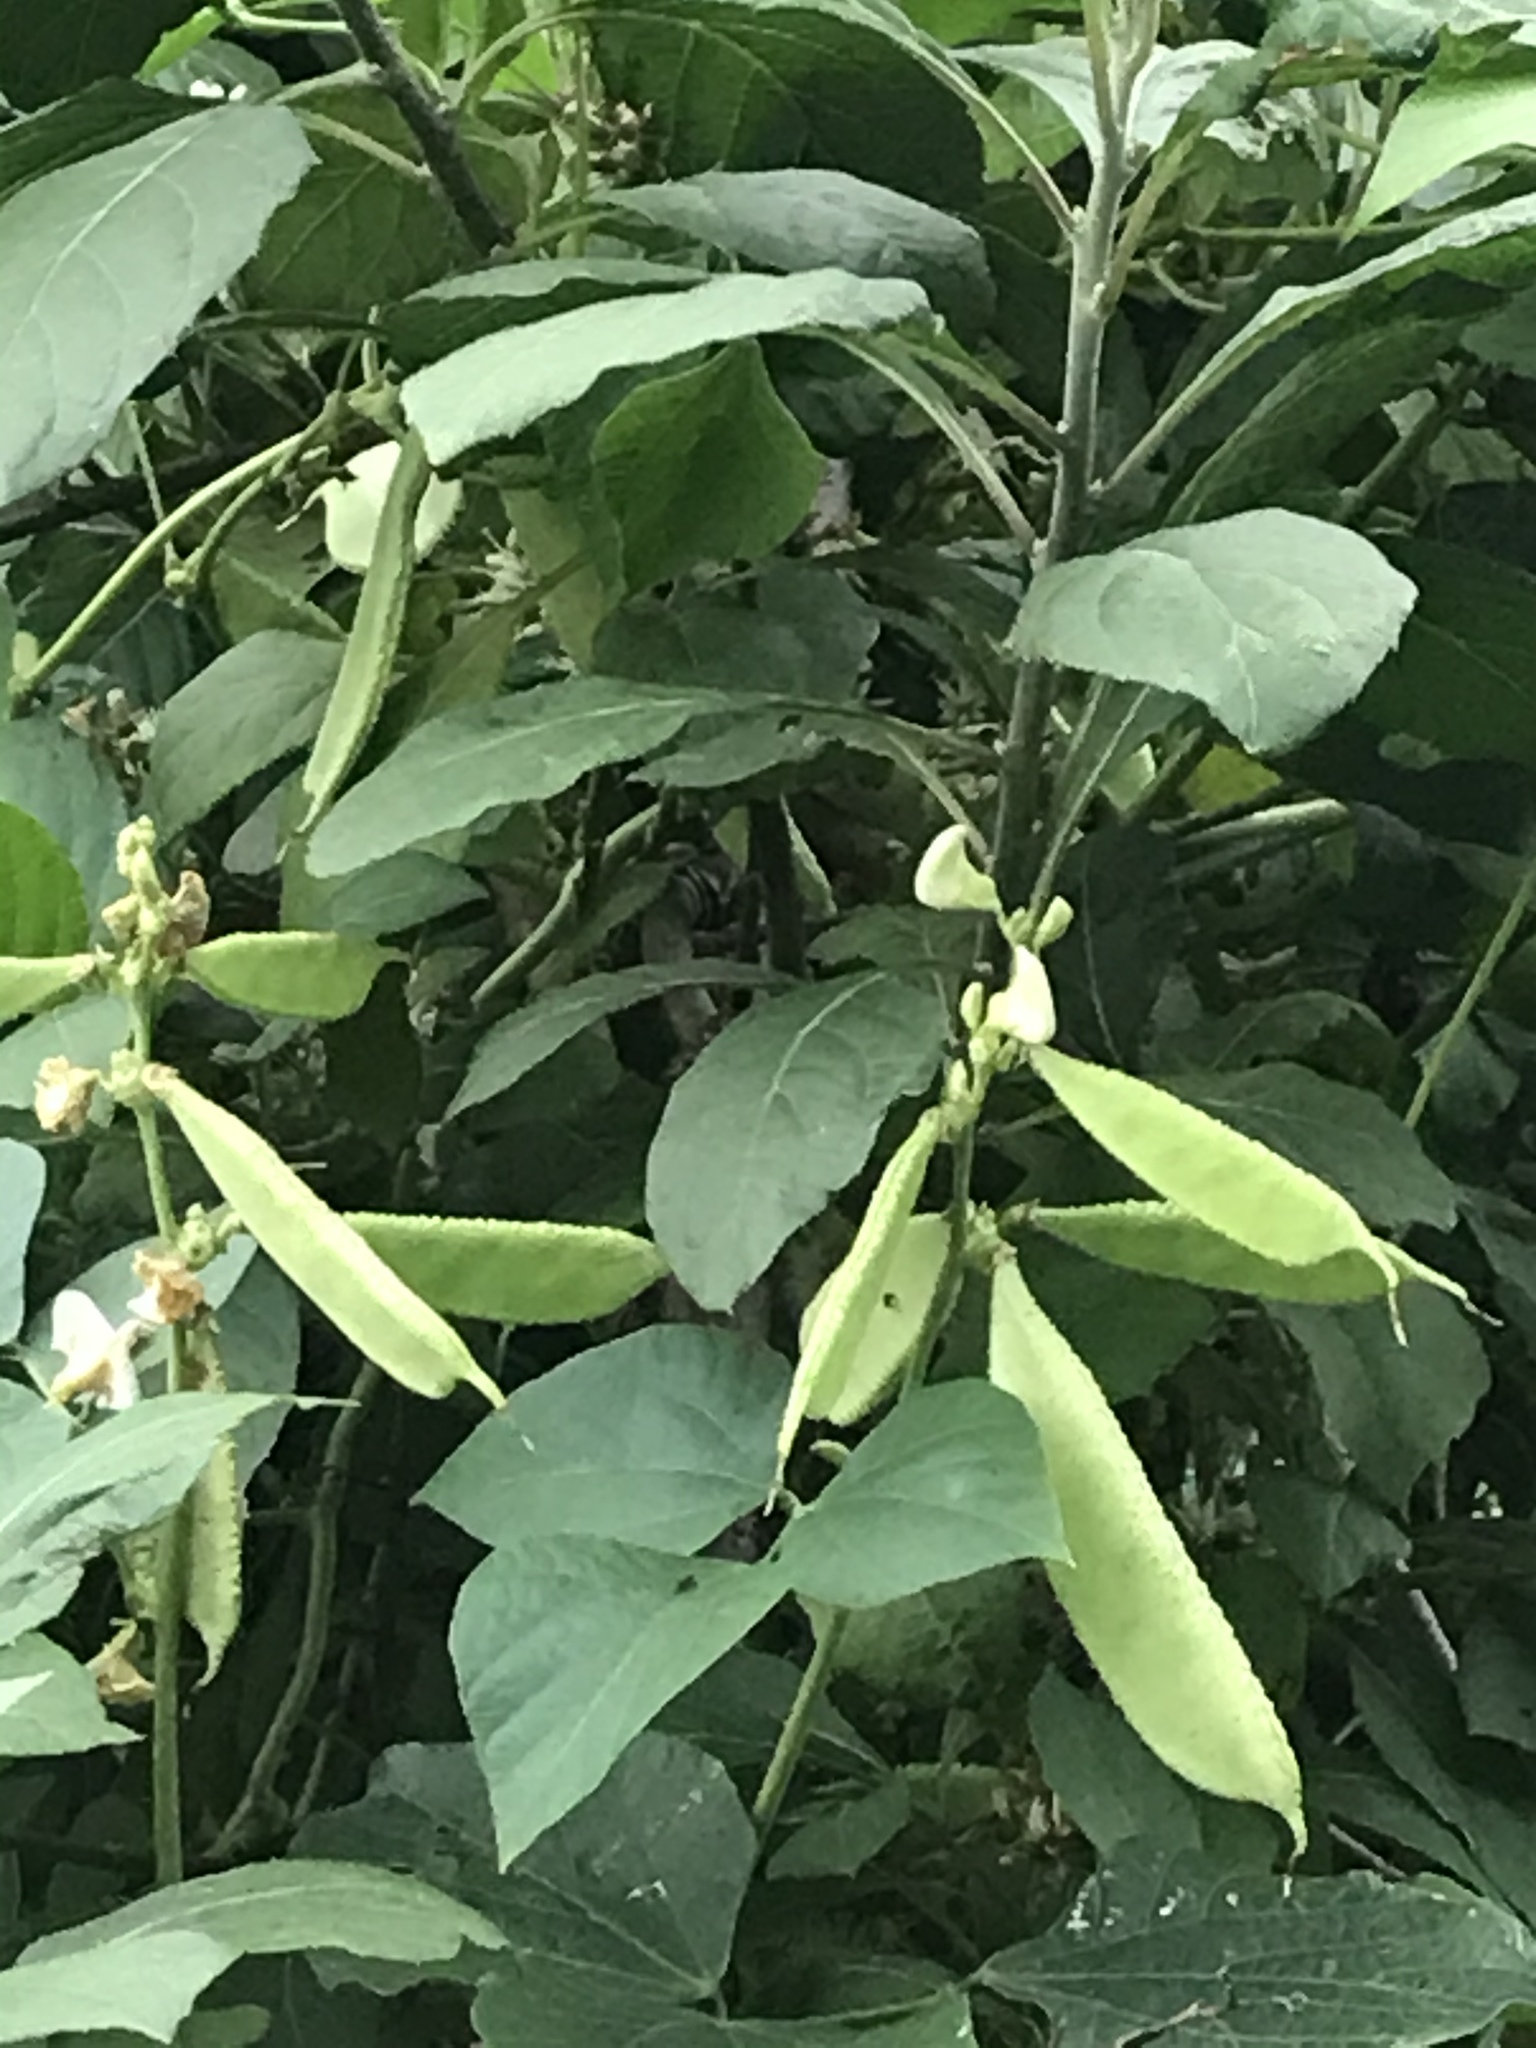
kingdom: Plantae
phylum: Tracheophyta
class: Magnoliopsida
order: Fabales
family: Fabaceae
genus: Lablab
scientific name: Lablab purpureus
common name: Lablab-bean
